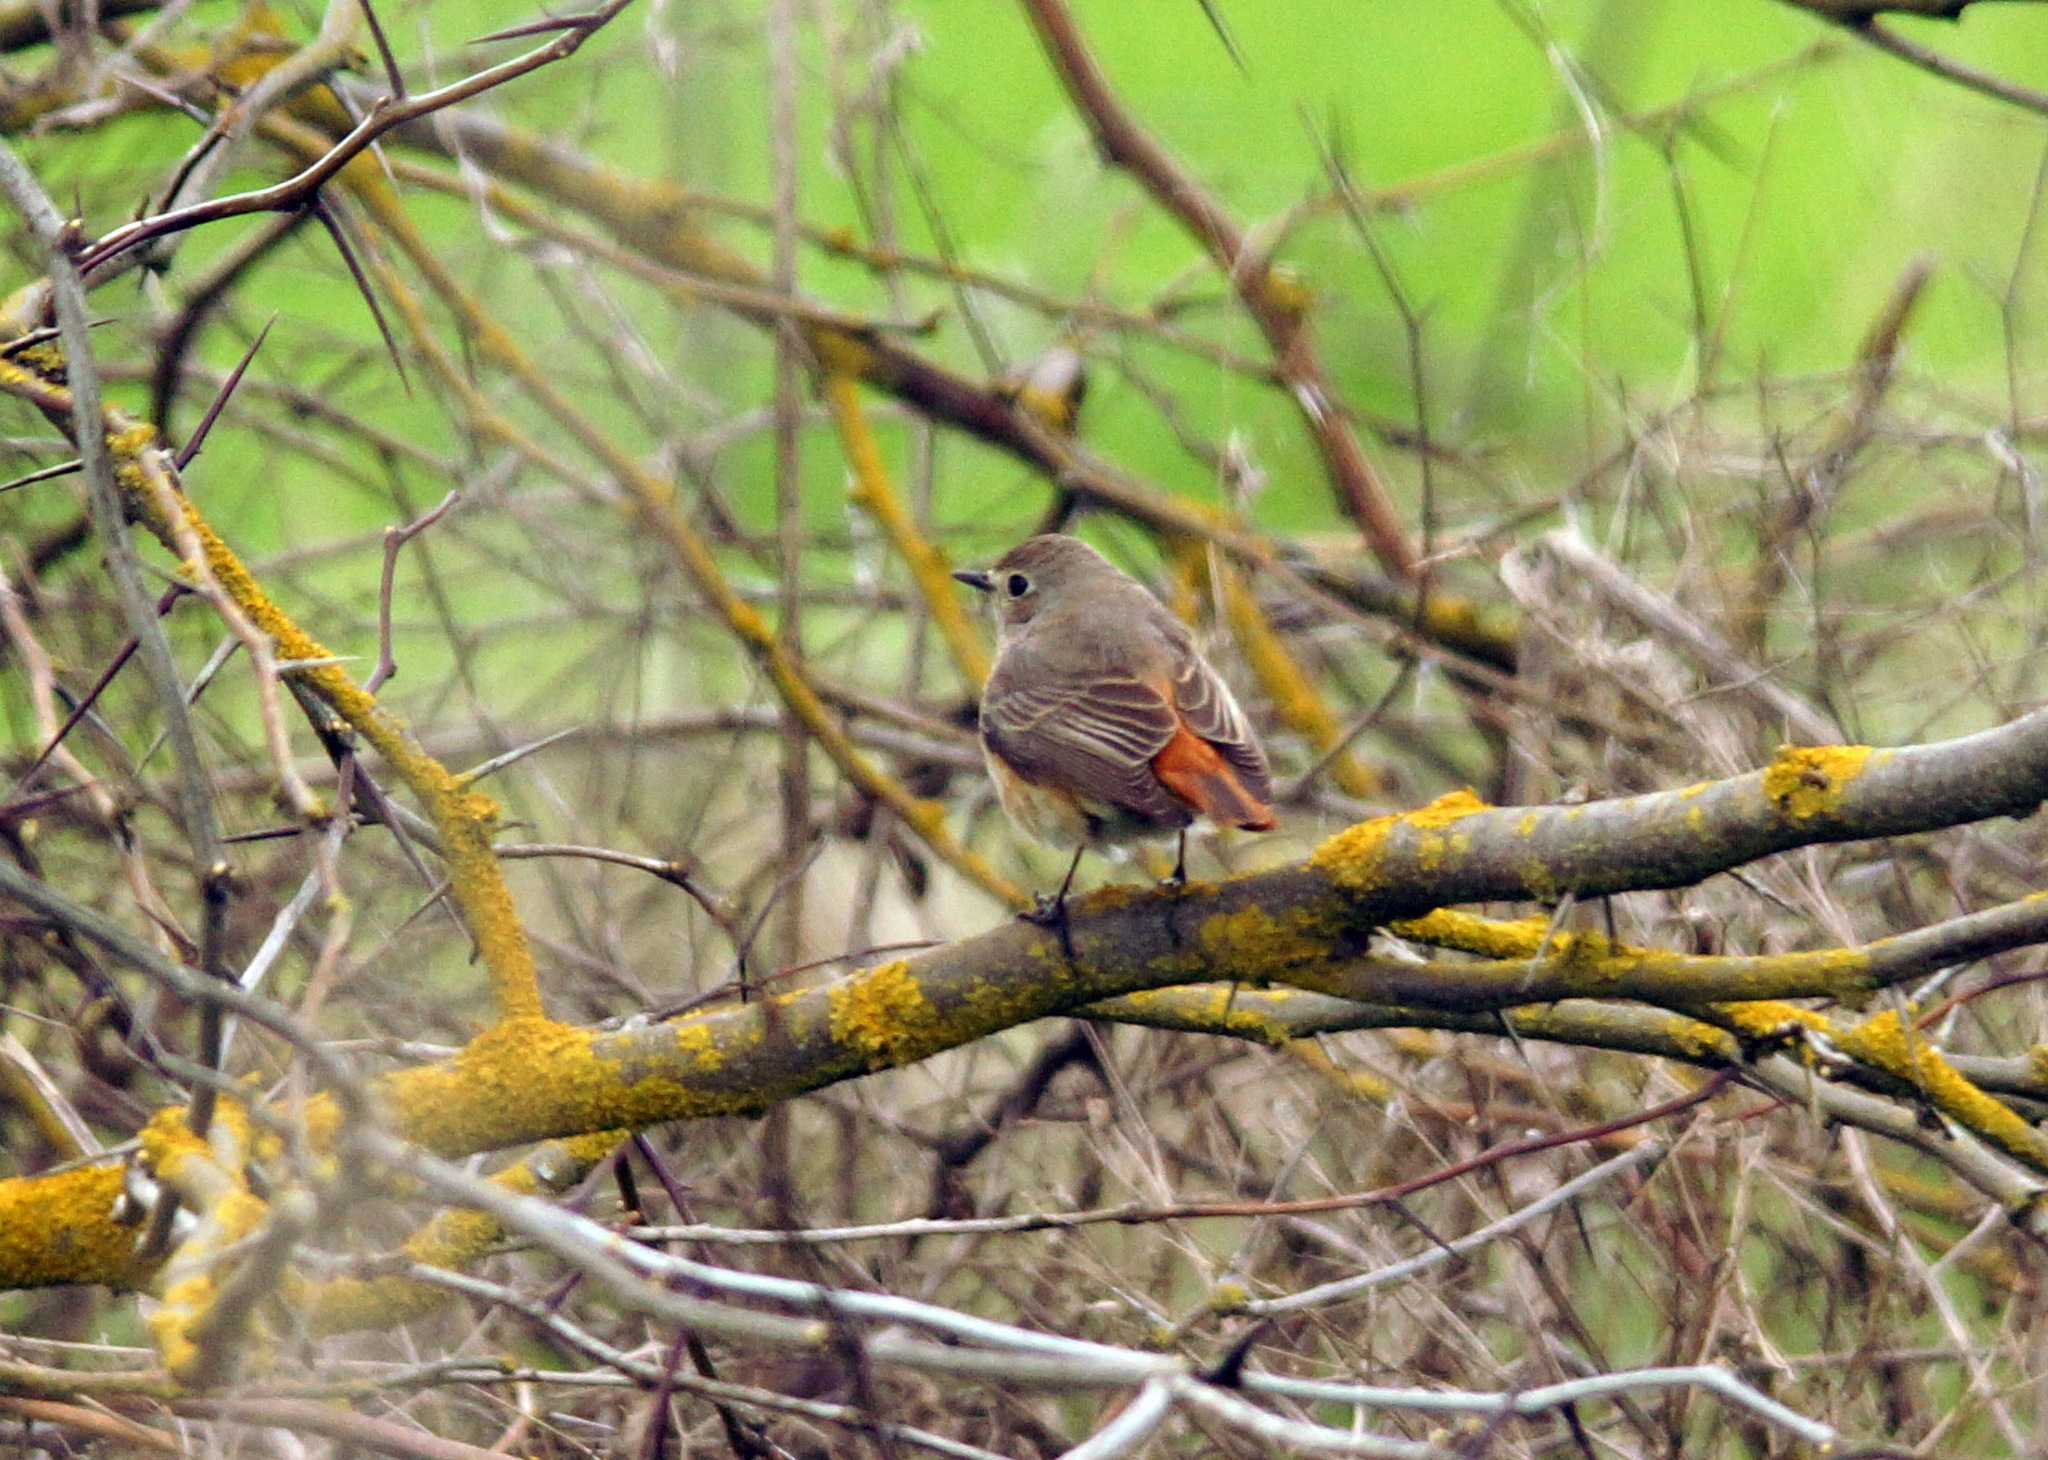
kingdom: Animalia
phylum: Chordata
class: Aves
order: Passeriformes
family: Muscicapidae
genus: Phoenicurus
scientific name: Phoenicurus phoenicurus
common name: Common redstart
